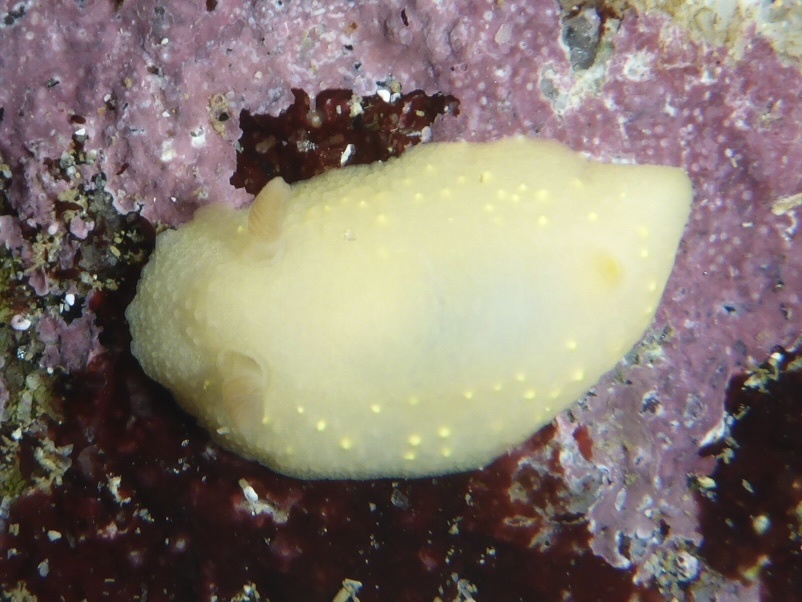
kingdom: Animalia
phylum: Mollusca
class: Gastropoda
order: Nudibranchia
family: Cadlinidae
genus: Cadlina
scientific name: Cadlina modesta
